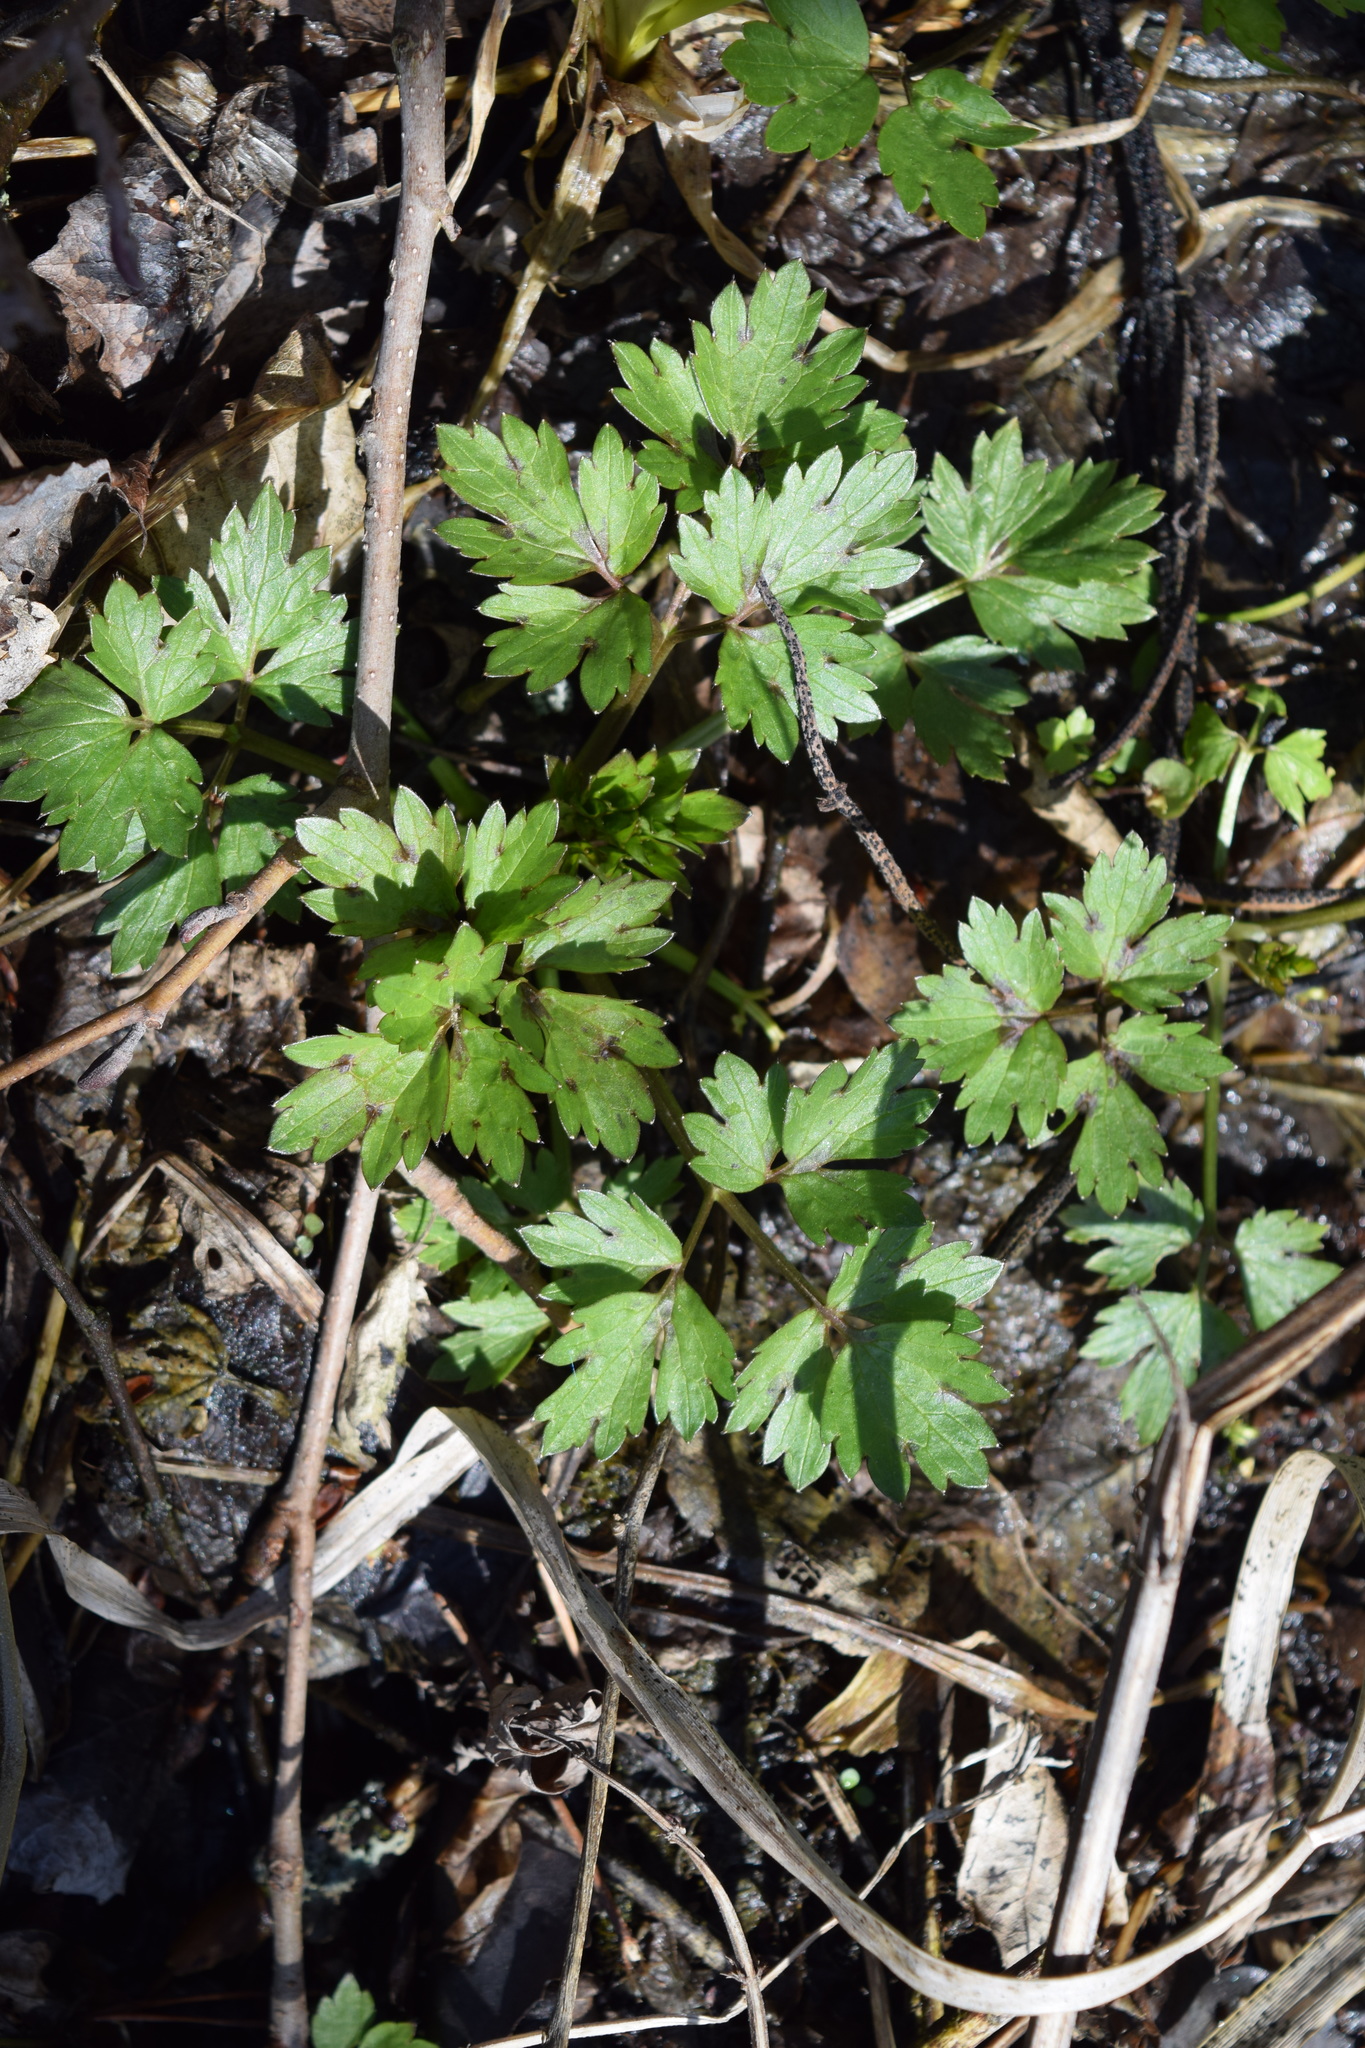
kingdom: Plantae
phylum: Tracheophyta
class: Magnoliopsida
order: Ranunculales
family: Ranunculaceae
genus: Ranunculus
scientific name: Ranunculus repens
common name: Creeping buttercup
